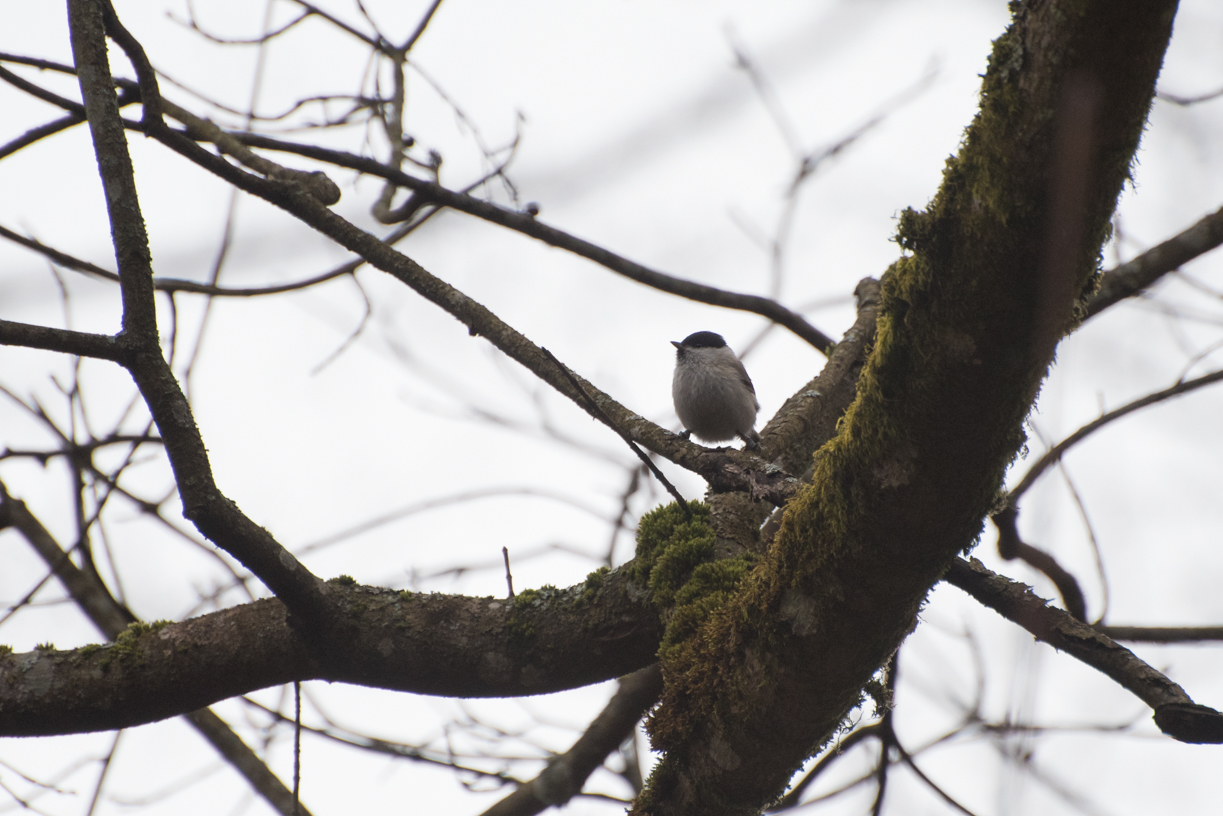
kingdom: Animalia
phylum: Chordata
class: Aves
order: Passeriformes
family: Paridae
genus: Poecile
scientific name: Poecile palustris
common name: Marsh tit
